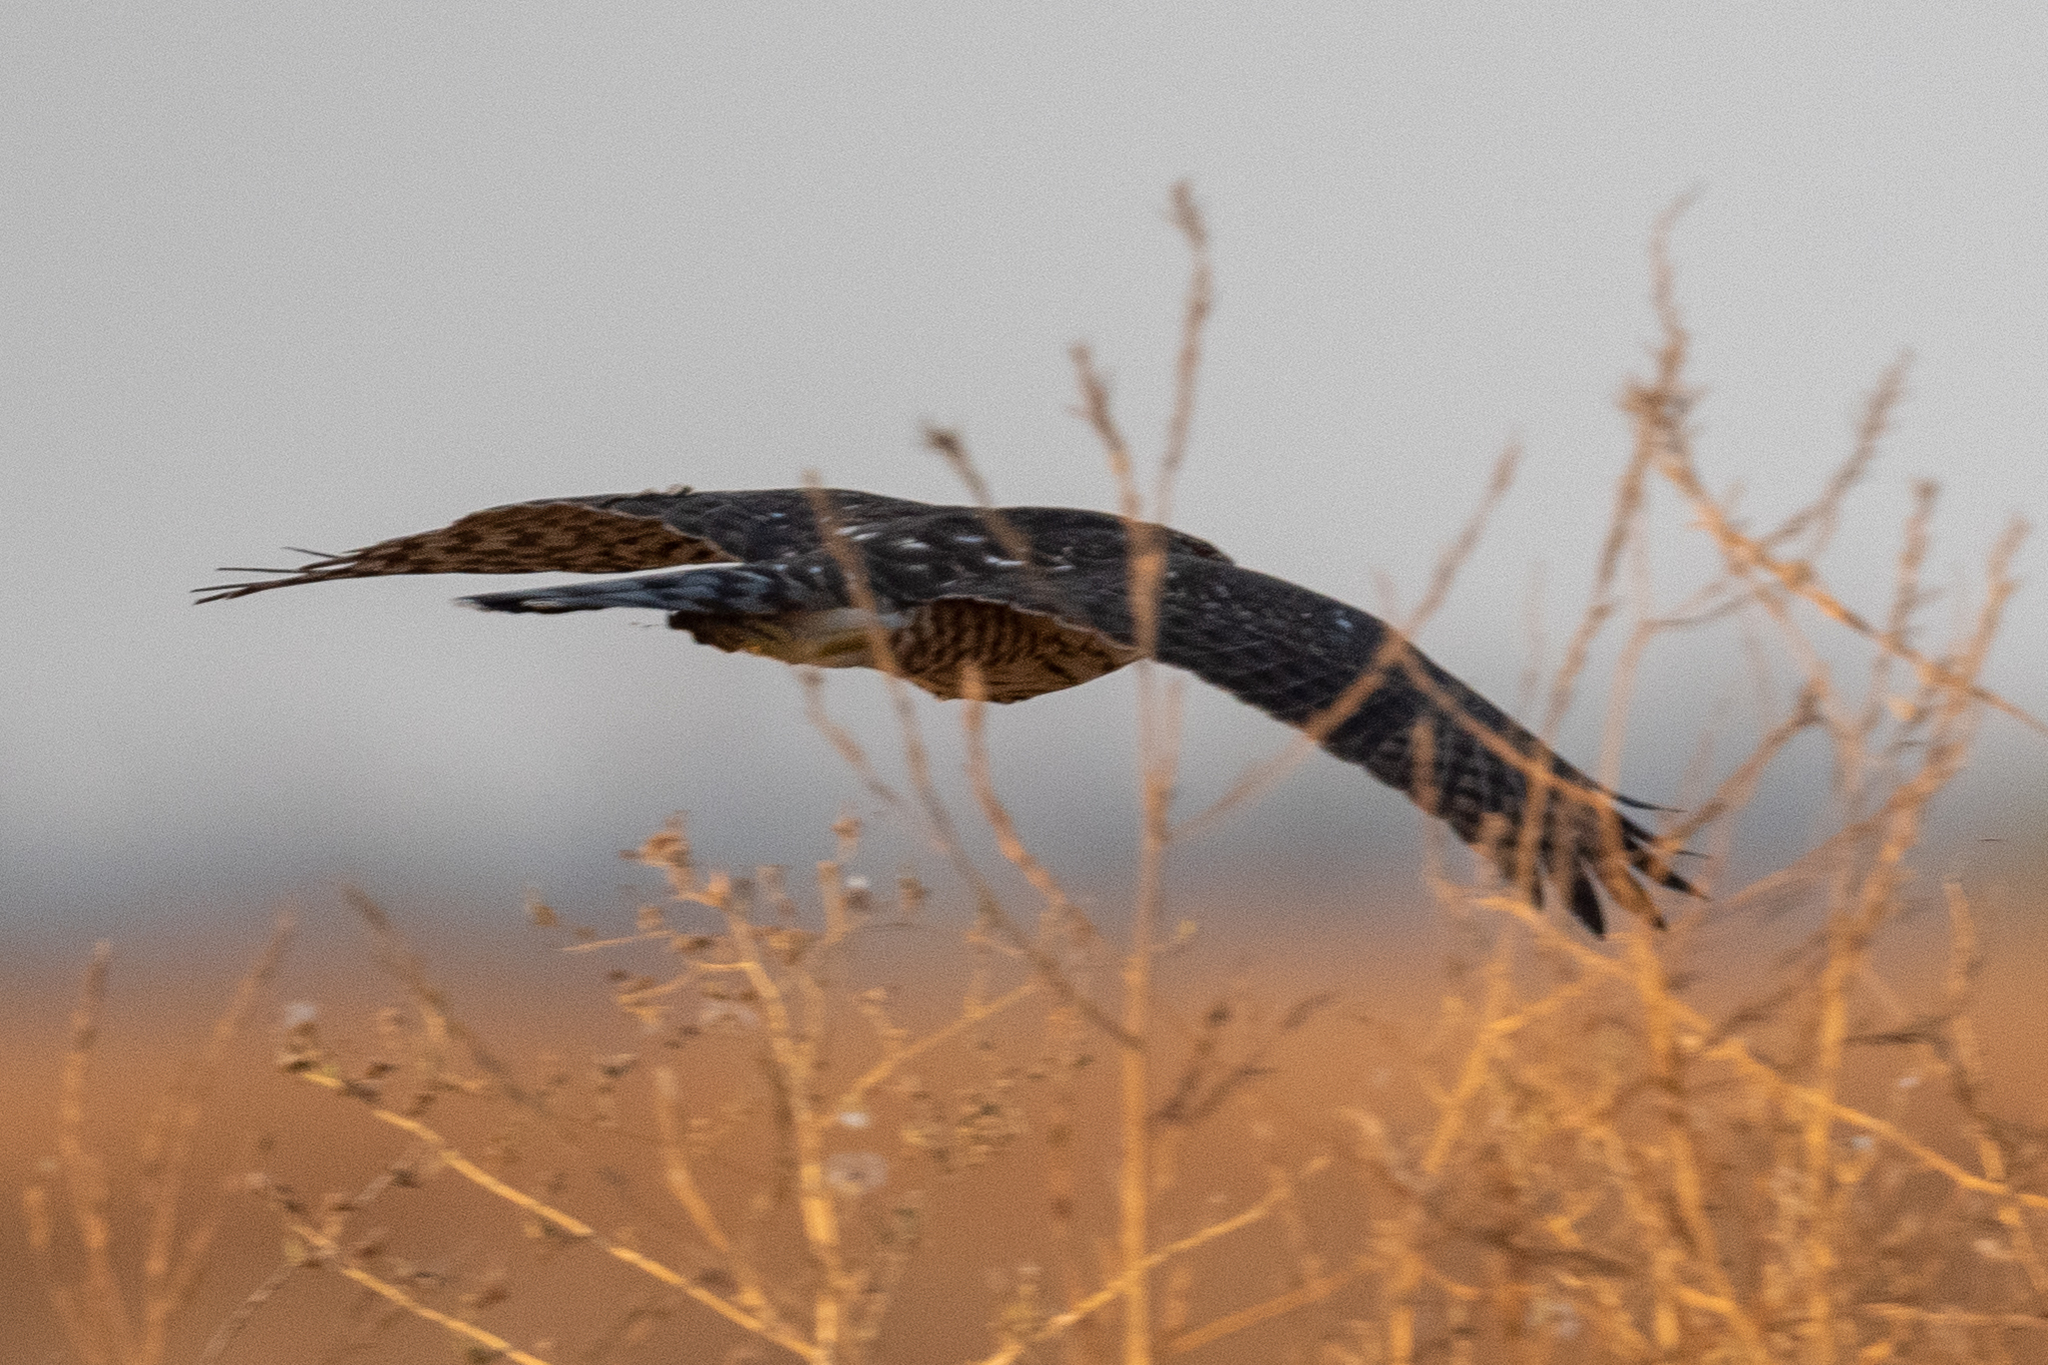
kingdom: Animalia
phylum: Chordata
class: Aves
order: Accipitriformes
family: Accipitridae
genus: Accipiter
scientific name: Accipiter cooperii
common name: Cooper's hawk
